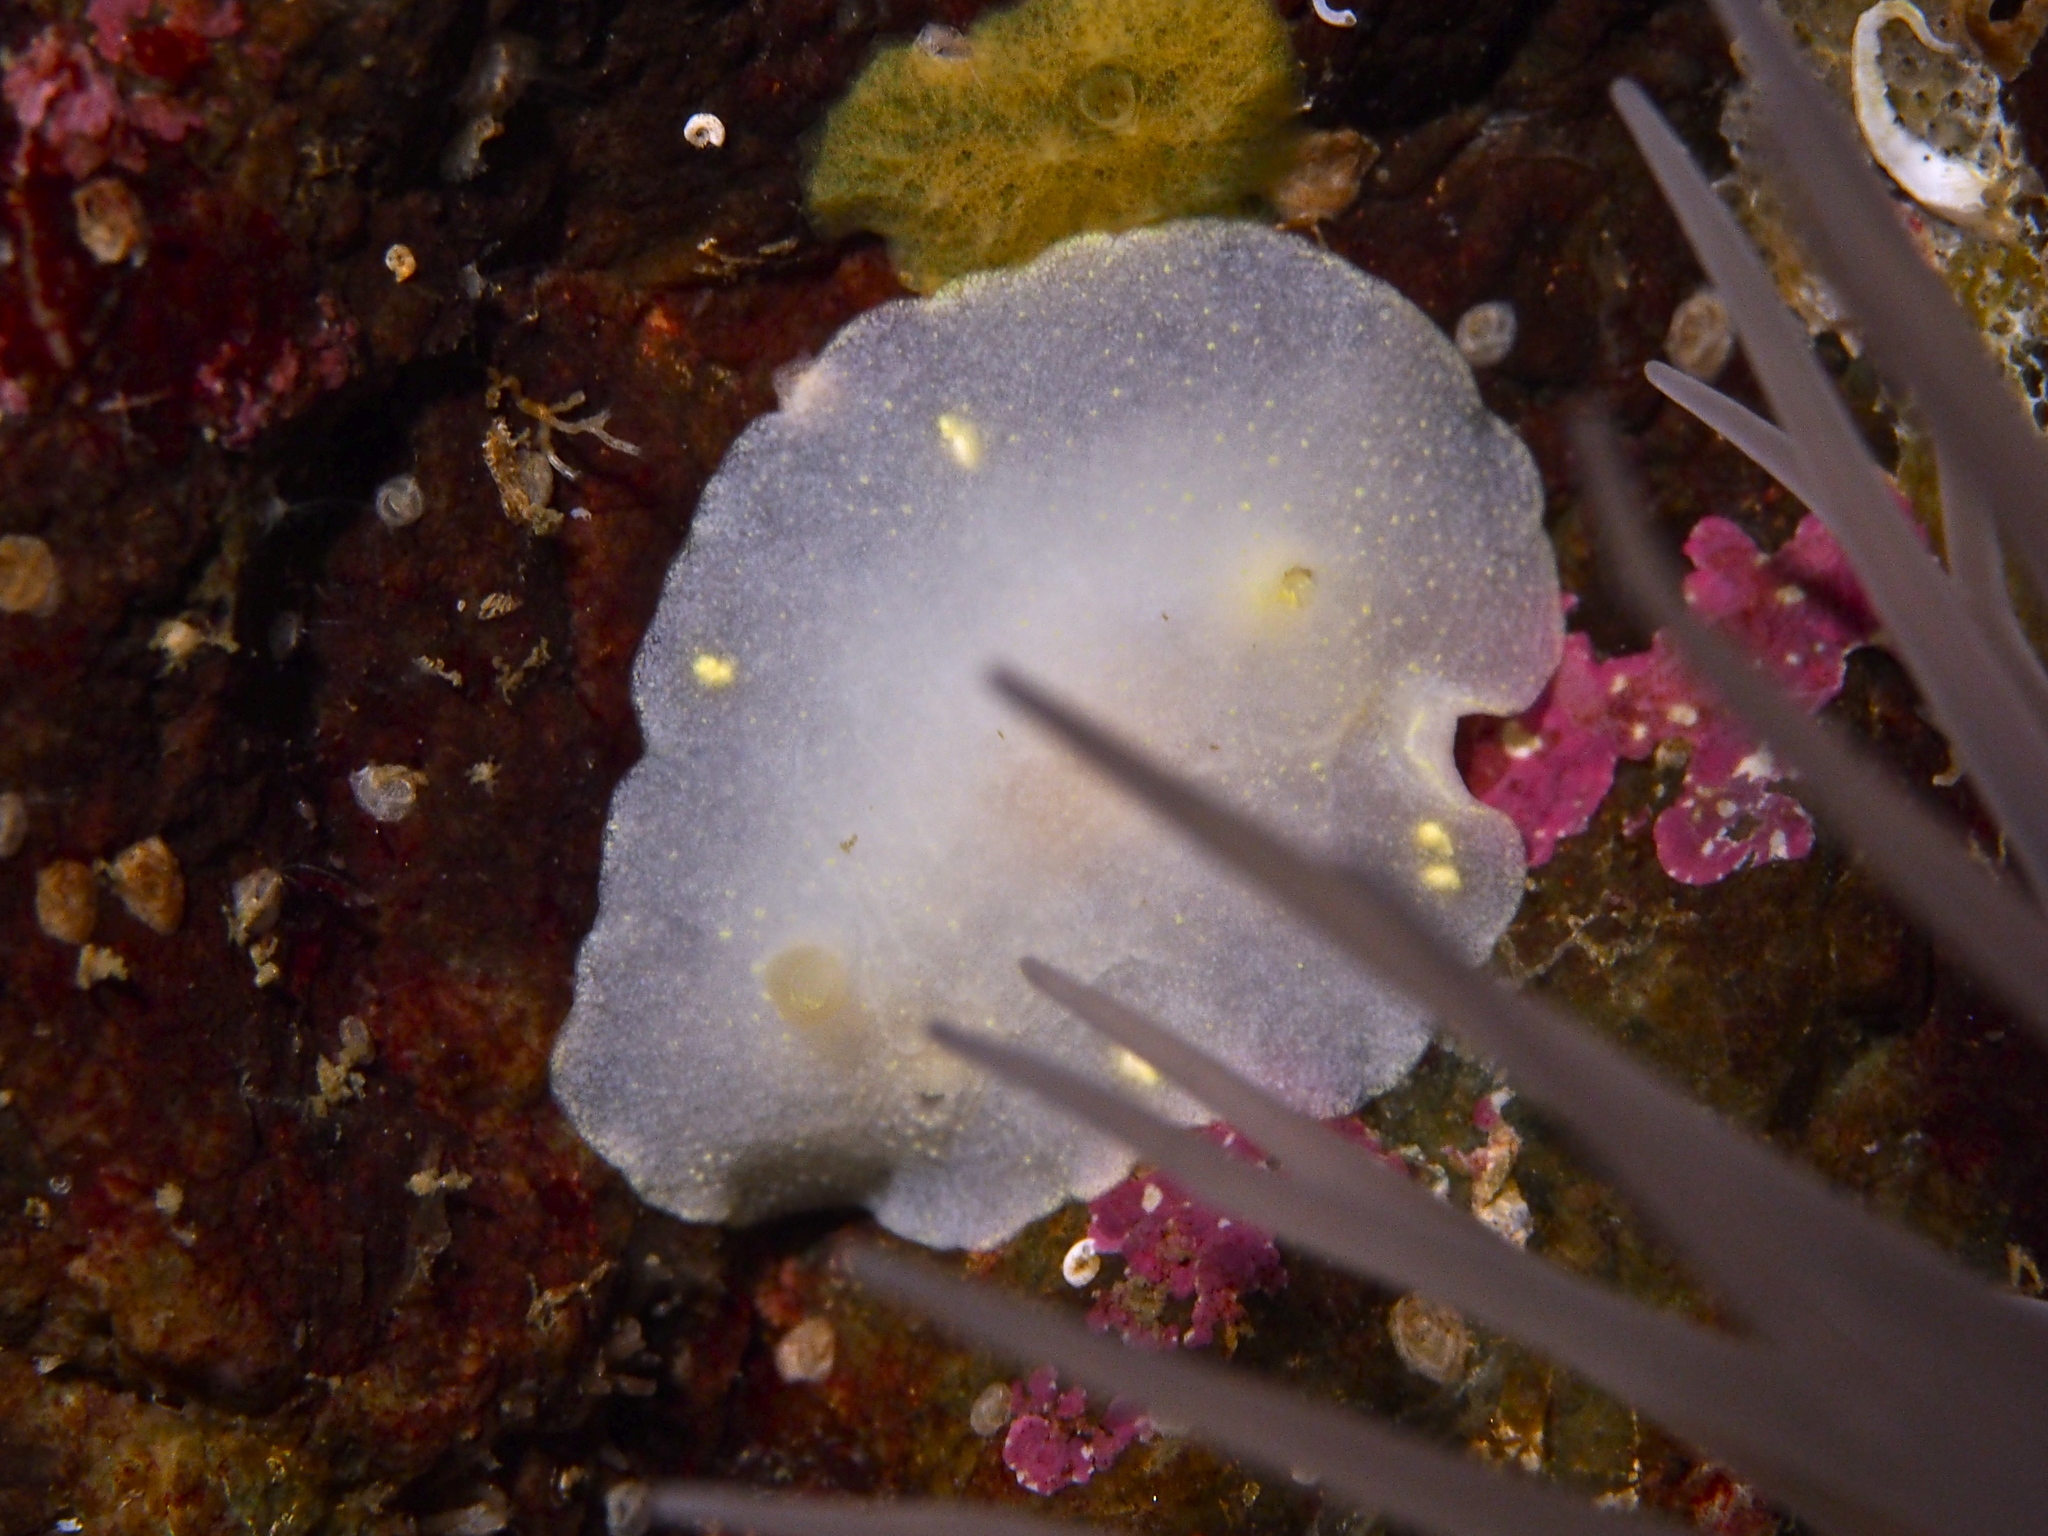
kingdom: Animalia
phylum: Mollusca
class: Gastropoda
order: Nudibranchia
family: Cadlinidae
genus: Cadlina
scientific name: Cadlina laevis
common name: White atlantic cadlina
